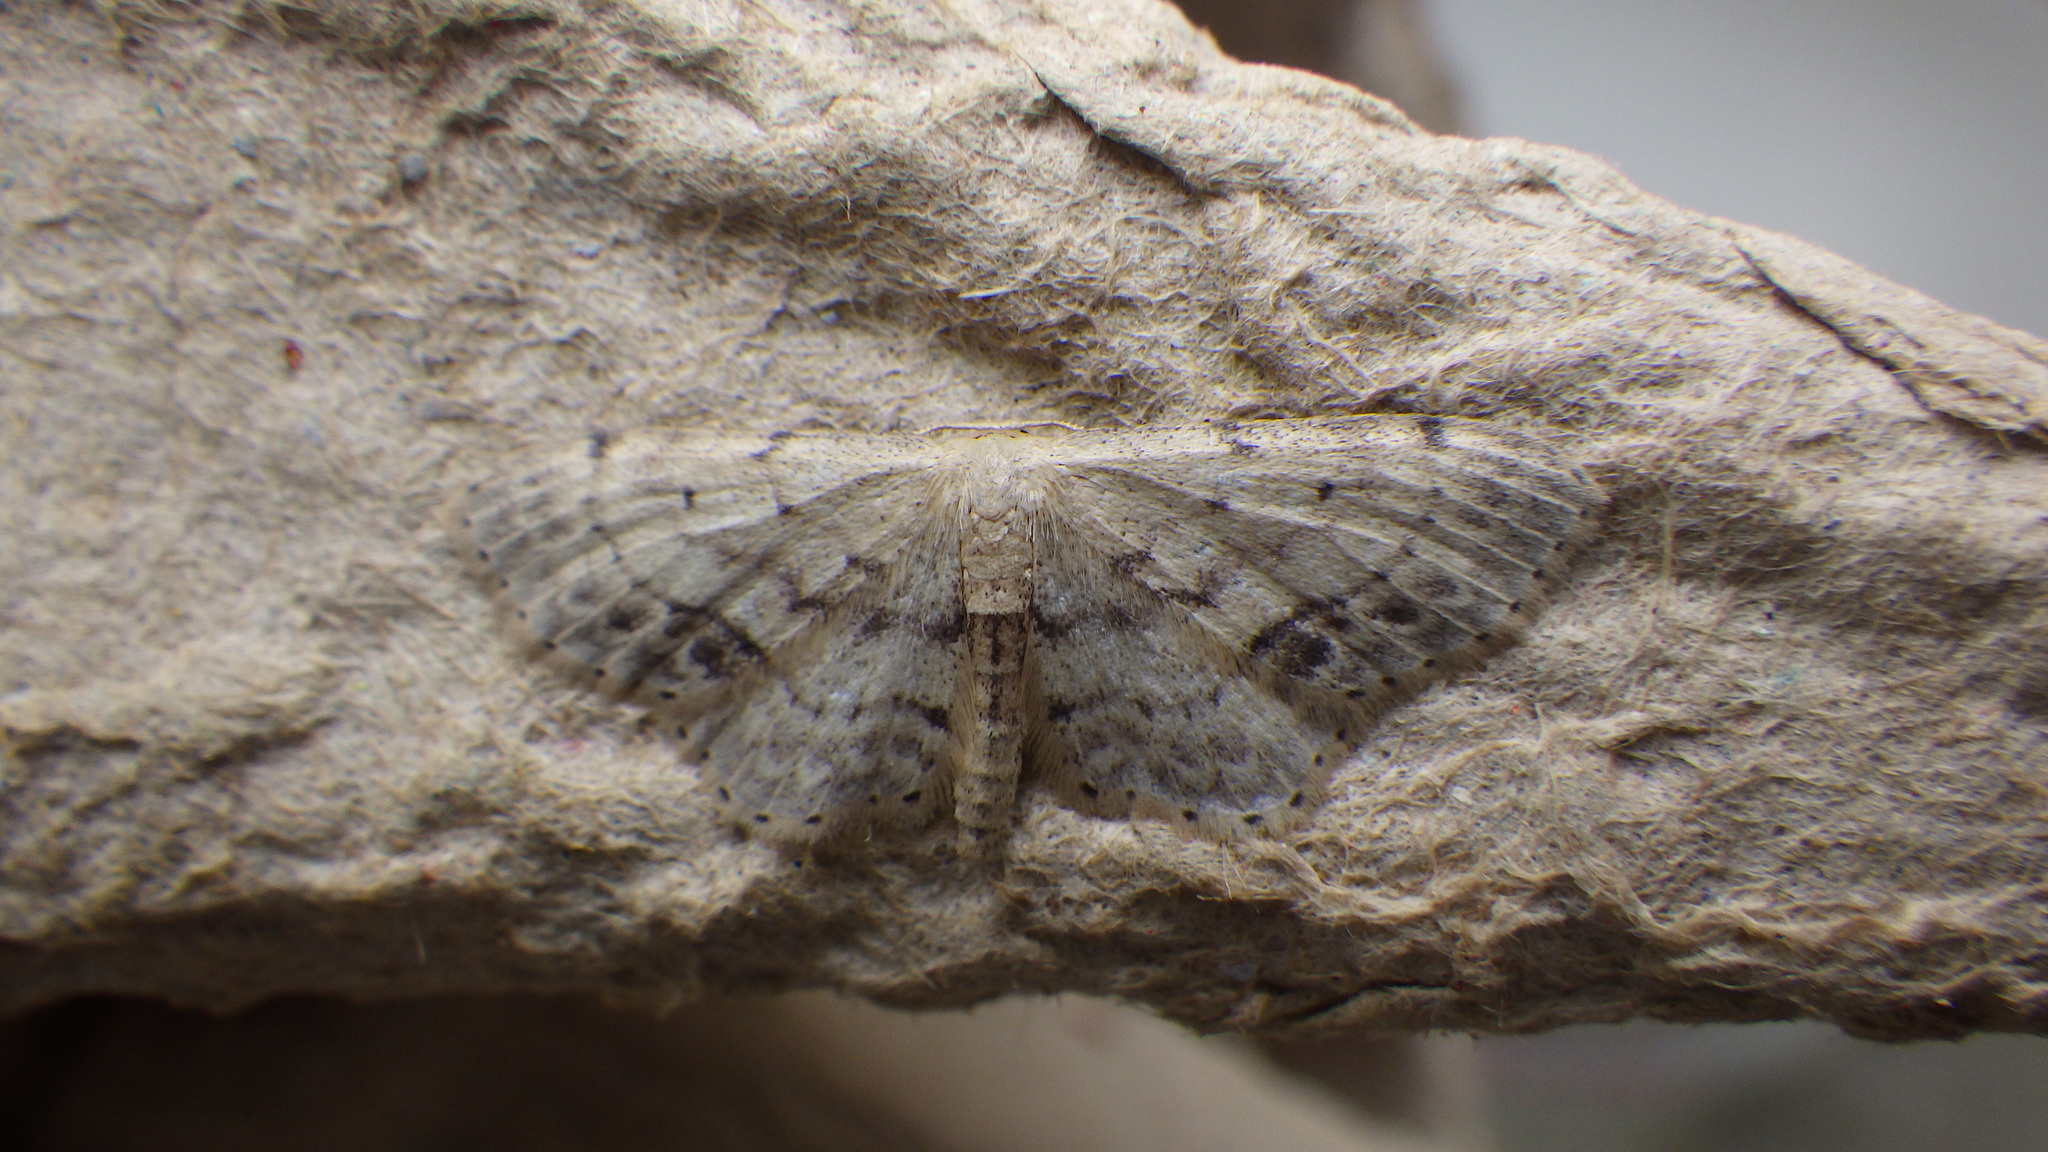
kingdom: Animalia
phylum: Arthropoda
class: Insecta
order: Lepidoptera
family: Geometridae
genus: Idaea
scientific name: Idaea dimidiata
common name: Single-dotted wave
